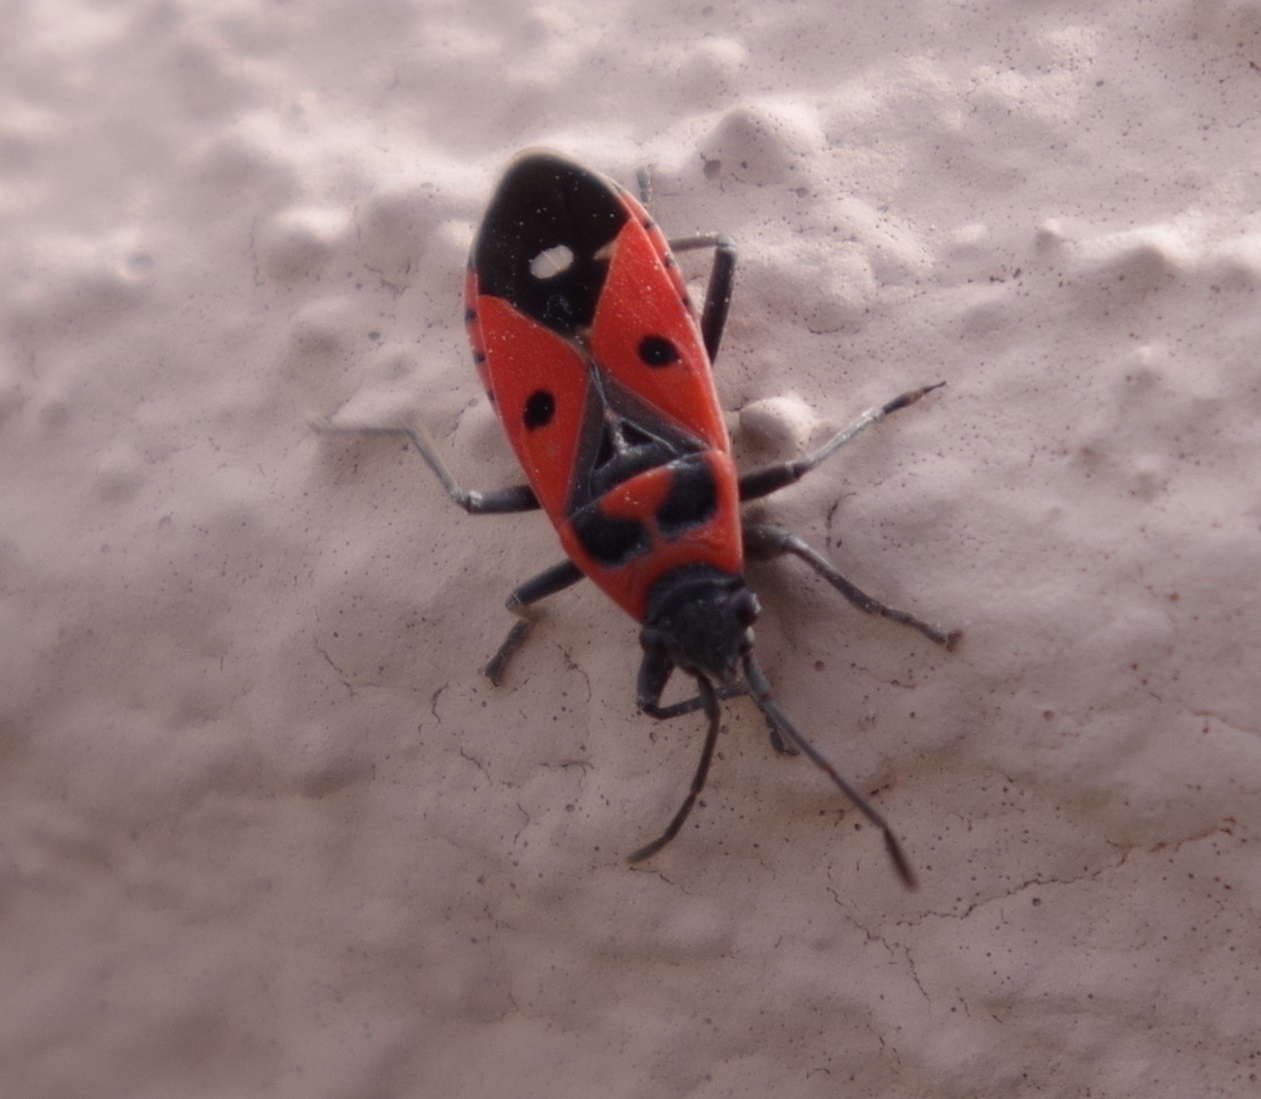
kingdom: Animalia
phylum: Arthropoda
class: Insecta
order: Hemiptera
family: Lygaeidae
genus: Melanocoryphus
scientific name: Melanocoryphus albomaculatus
